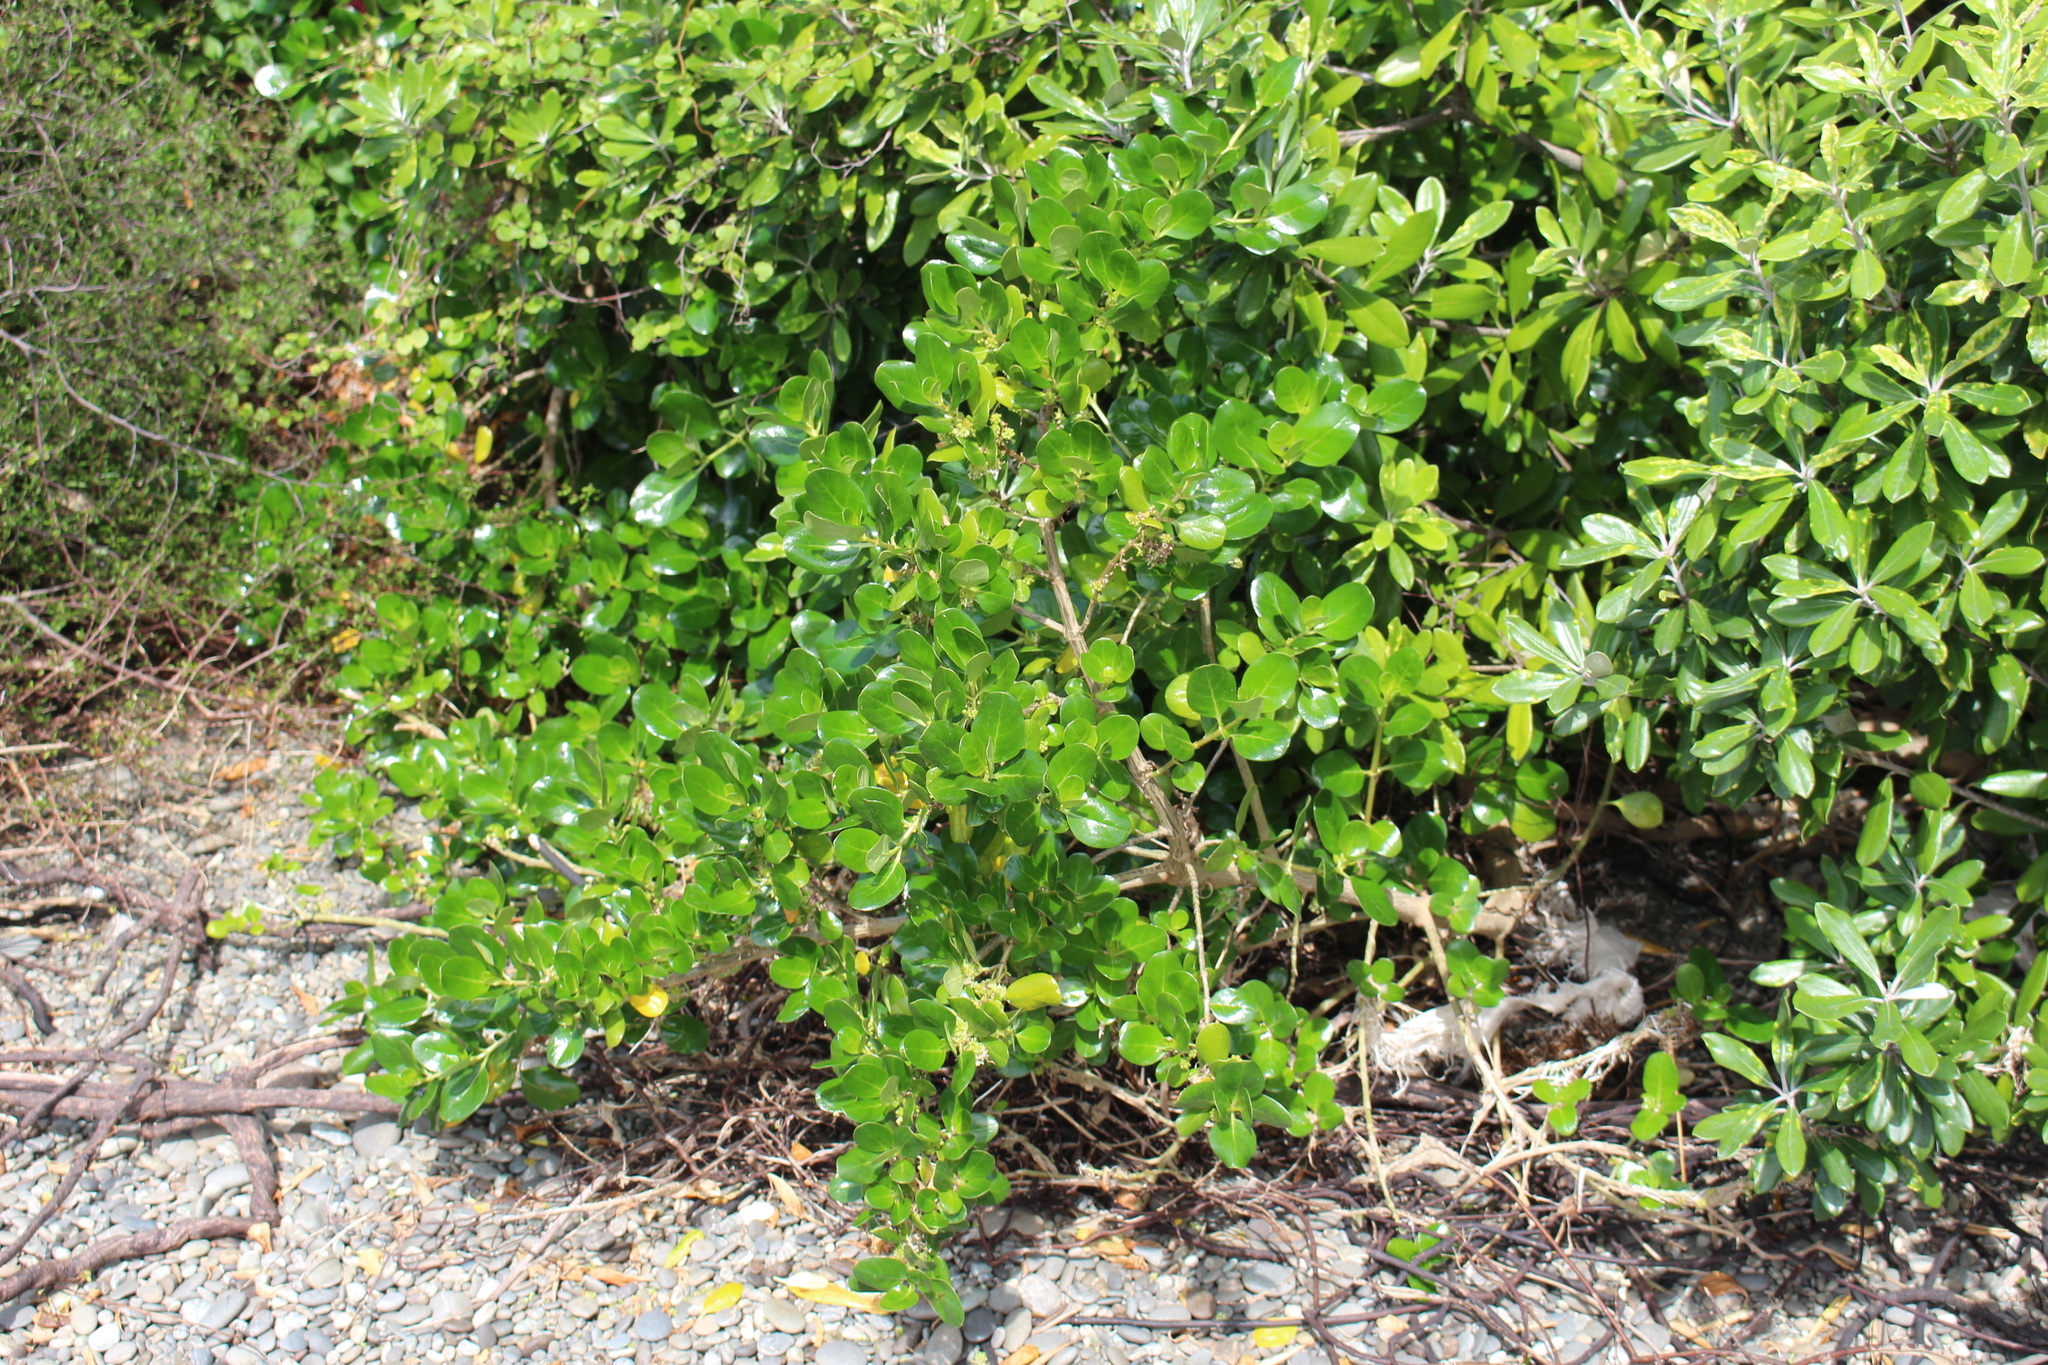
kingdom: Plantae
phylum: Tracheophyta
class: Magnoliopsida
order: Gentianales
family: Rubiaceae
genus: Coprosma
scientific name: Coprosma repens
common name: Tree bedstraw
